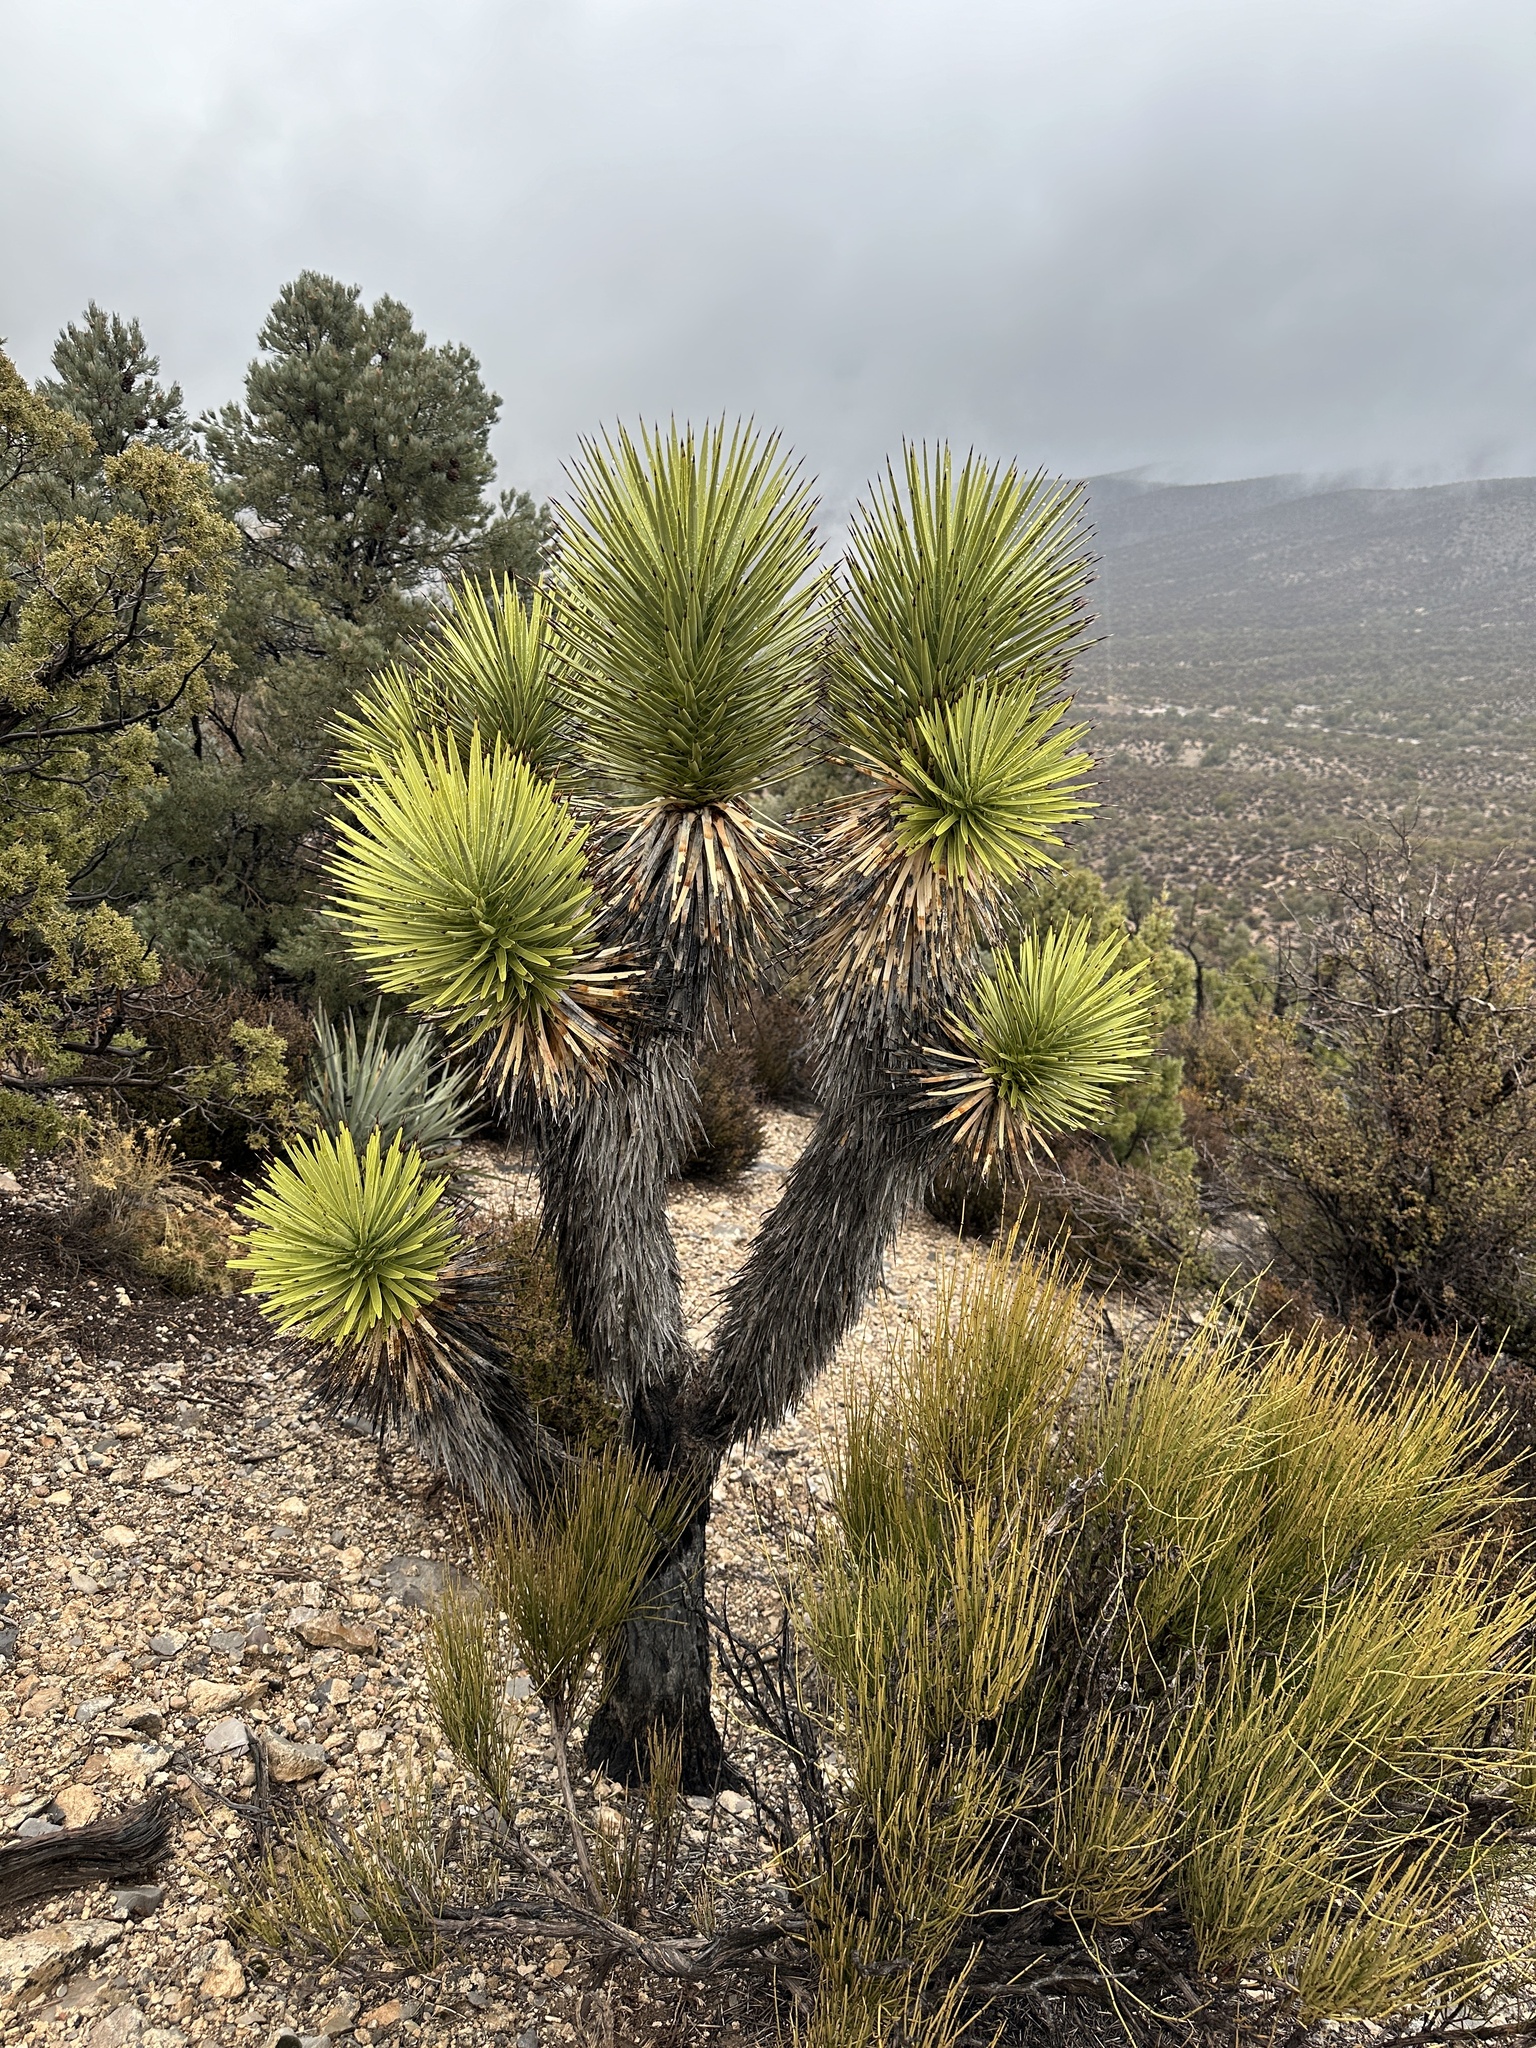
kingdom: Plantae
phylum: Tracheophyta
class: Liliopsida
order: Asparagales
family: Asparagaceae
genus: Yucca
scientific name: Yucca brevifolia
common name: Joshua tree
